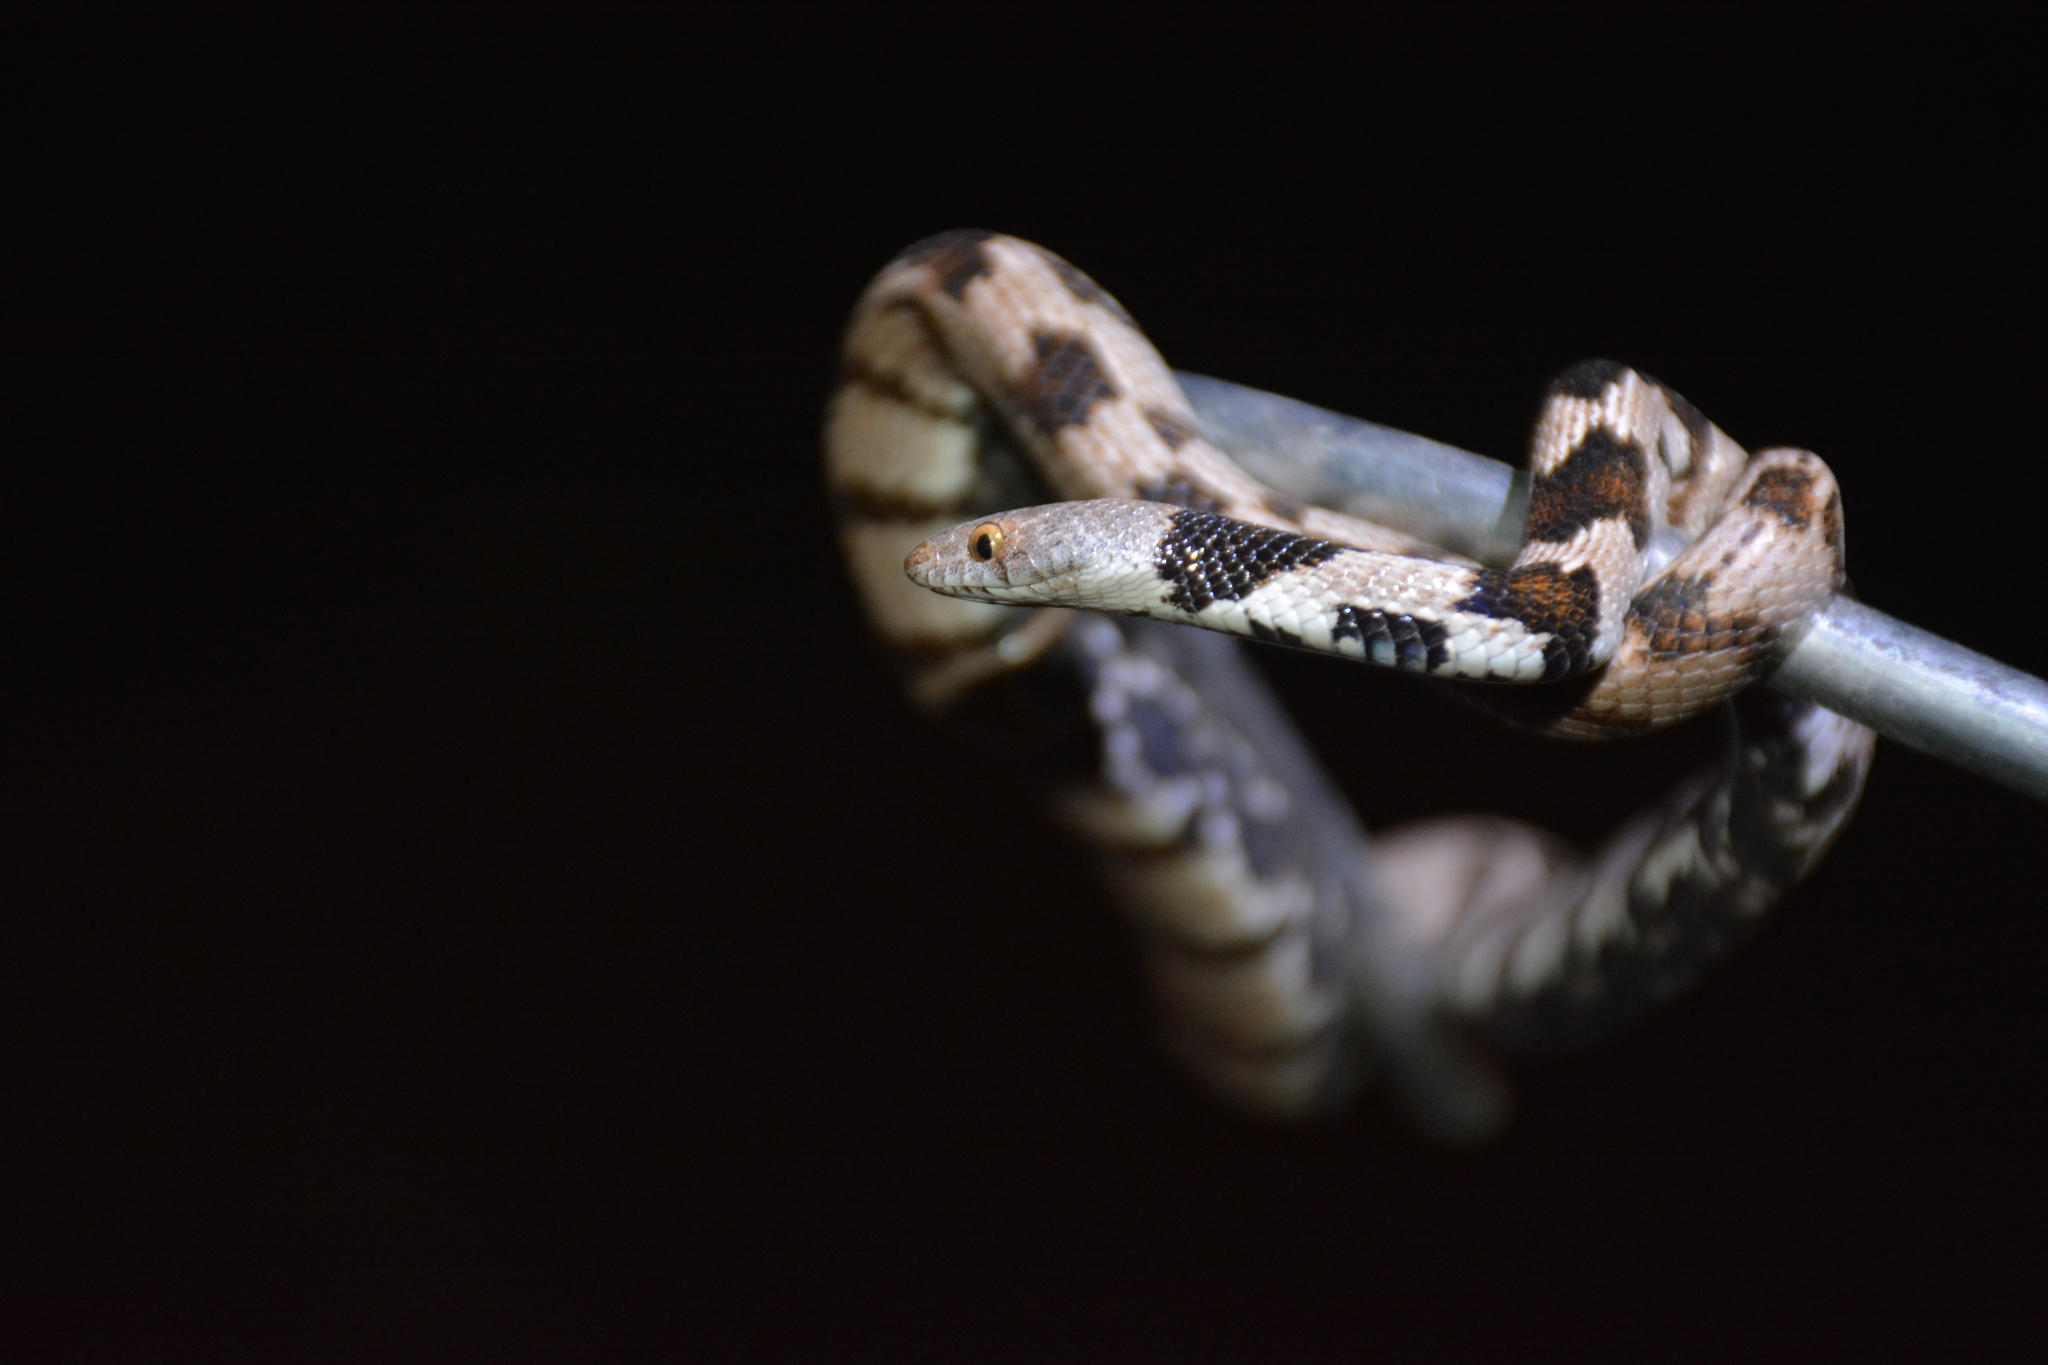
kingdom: Animalia
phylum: Chordata
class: Squamata
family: Colubridae
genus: Telescopus
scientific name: Telescopus fallax
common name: Cat snake
